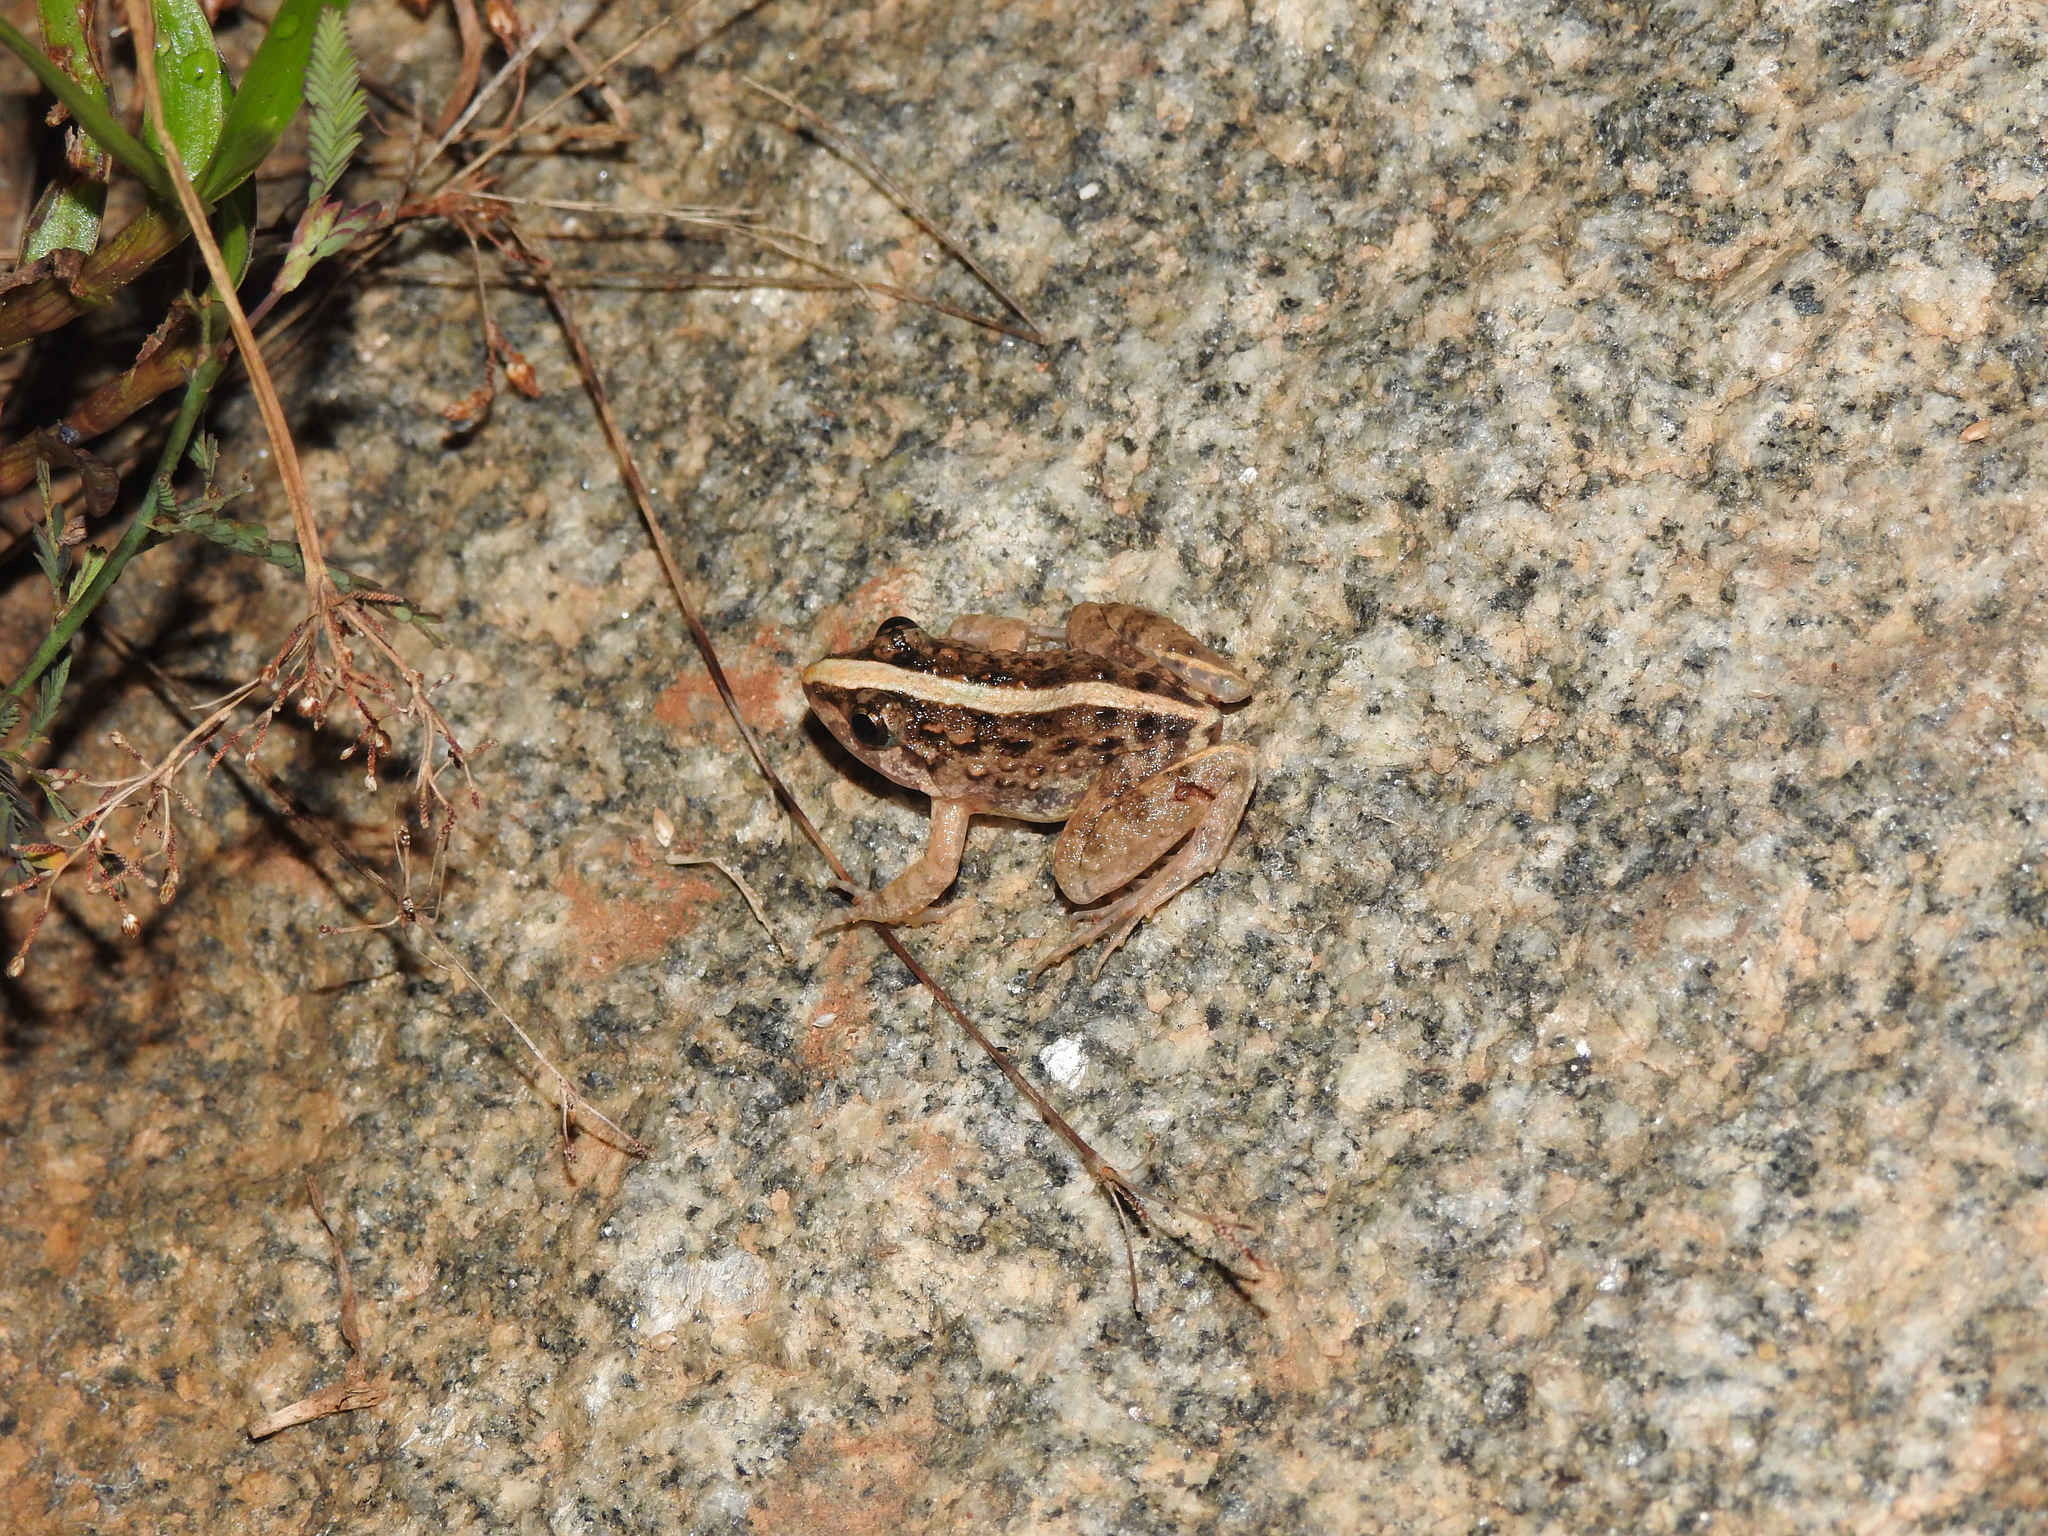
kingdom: Animalia
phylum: Chordata
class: Amphibia
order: Anura
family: Dicroglossidae
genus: Minervarya
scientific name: Minervarya agricola
